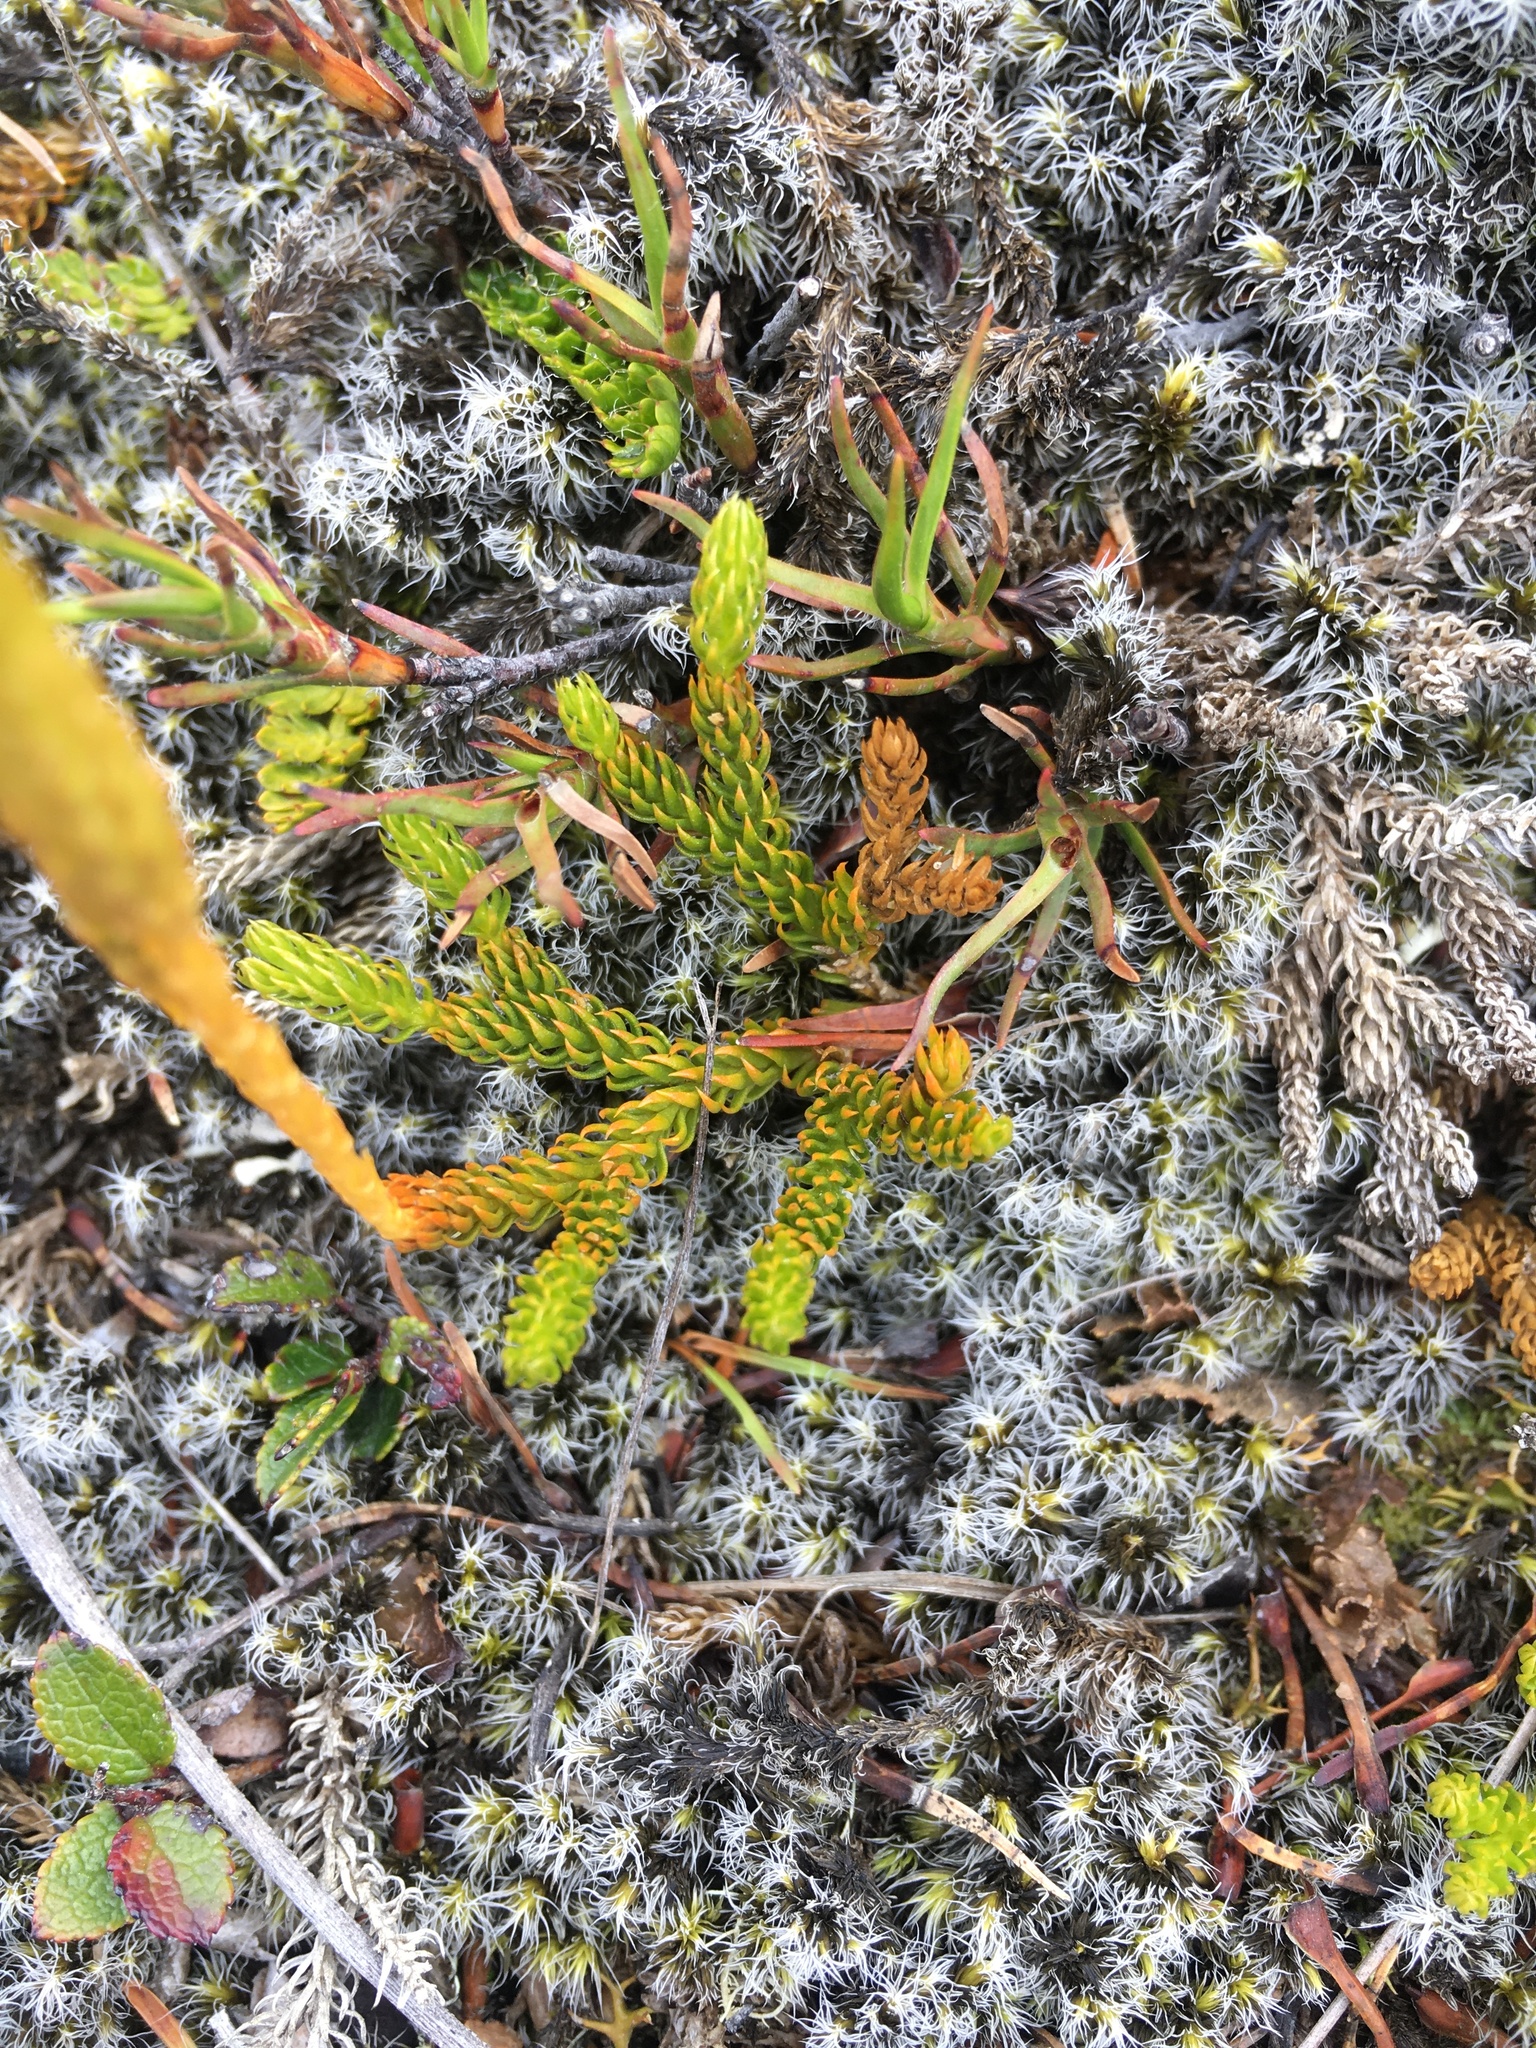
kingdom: Plantae
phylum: Tracheophyta
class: Lycopodiopsida
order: Lycopodiales
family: Lycopodiaceae
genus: Austrolycopodium
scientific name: Austrolycopodium fastigiatum
